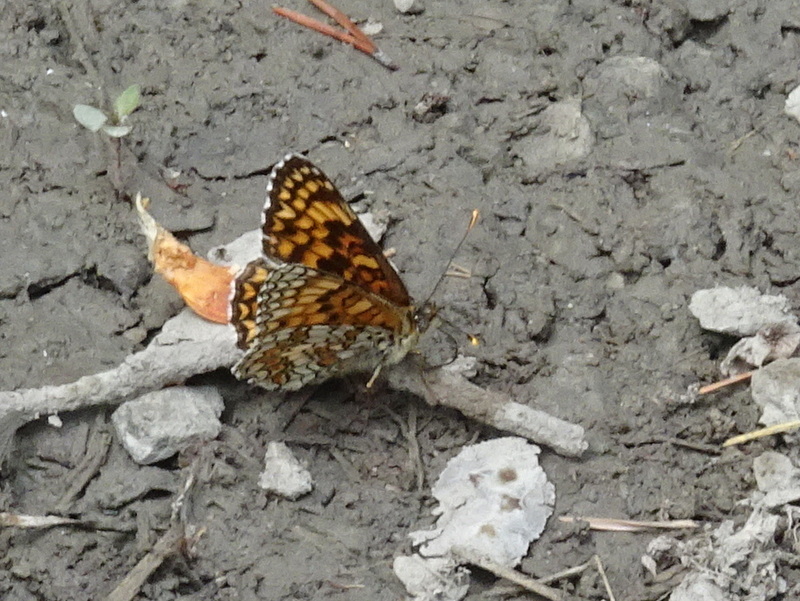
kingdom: Animalia
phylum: Arthropoda
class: Insecta
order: Lepidoptera
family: Nymphalidae
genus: Melitaea
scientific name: Melitaea phoebe
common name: Knapweed fritillary
